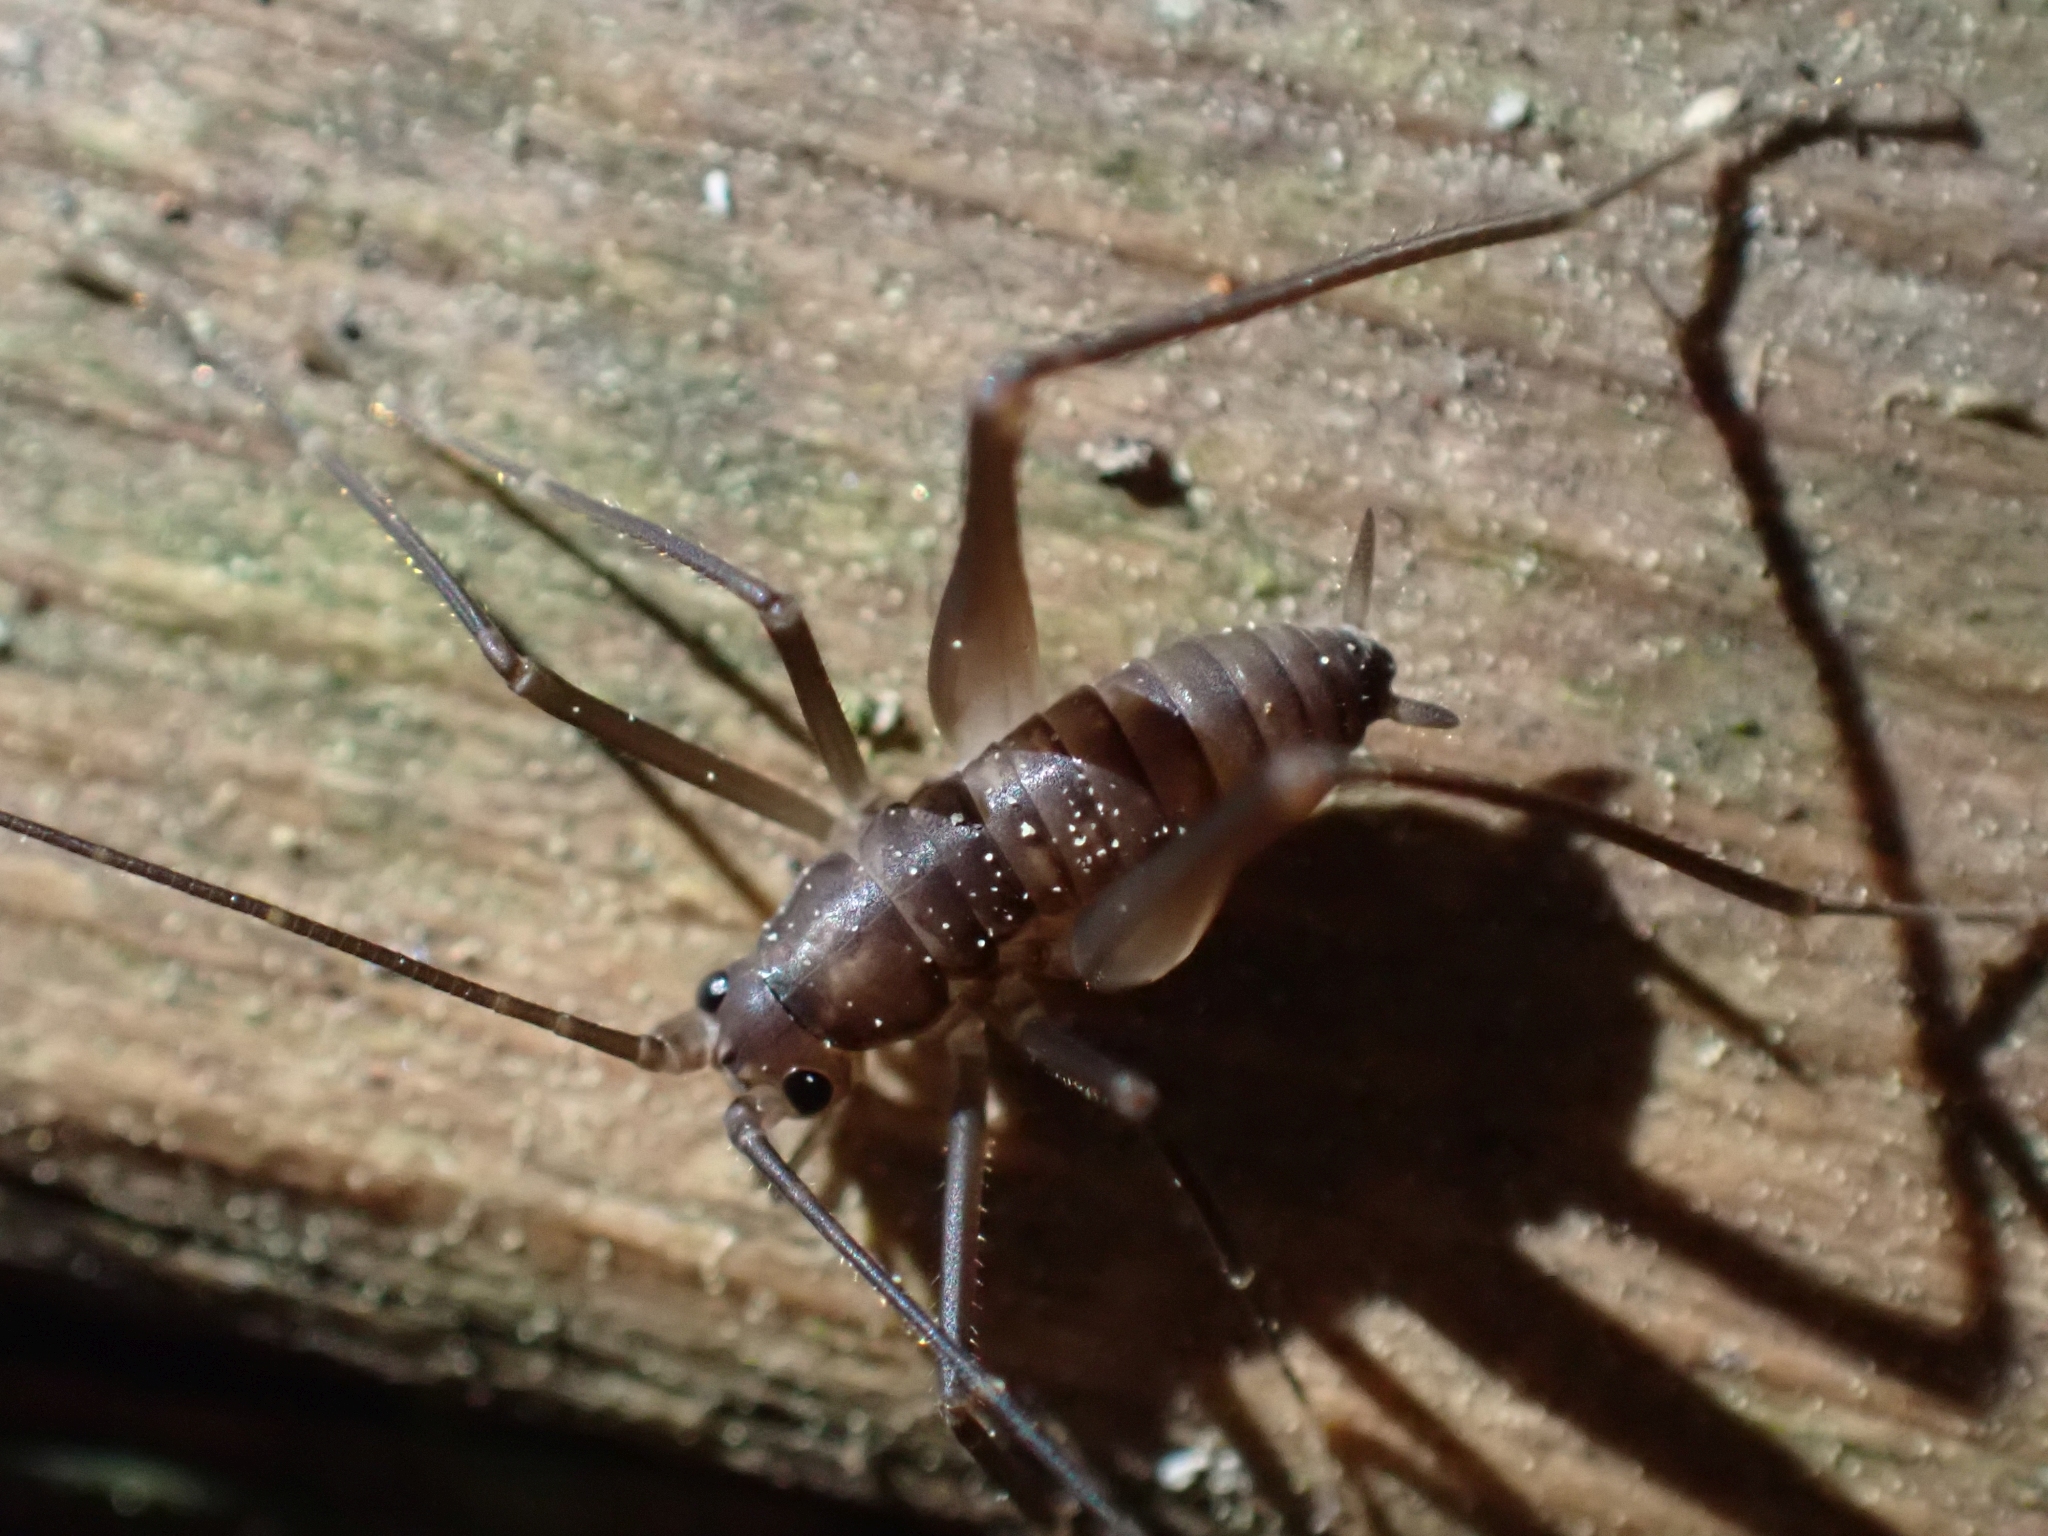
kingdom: Animalia
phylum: Arthropoda
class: Insecta
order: Orthoptera
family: Rhaphidophoridae
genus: Tropidischia
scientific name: Tropidischia xanthostoma
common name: Square-legged camel cricket
